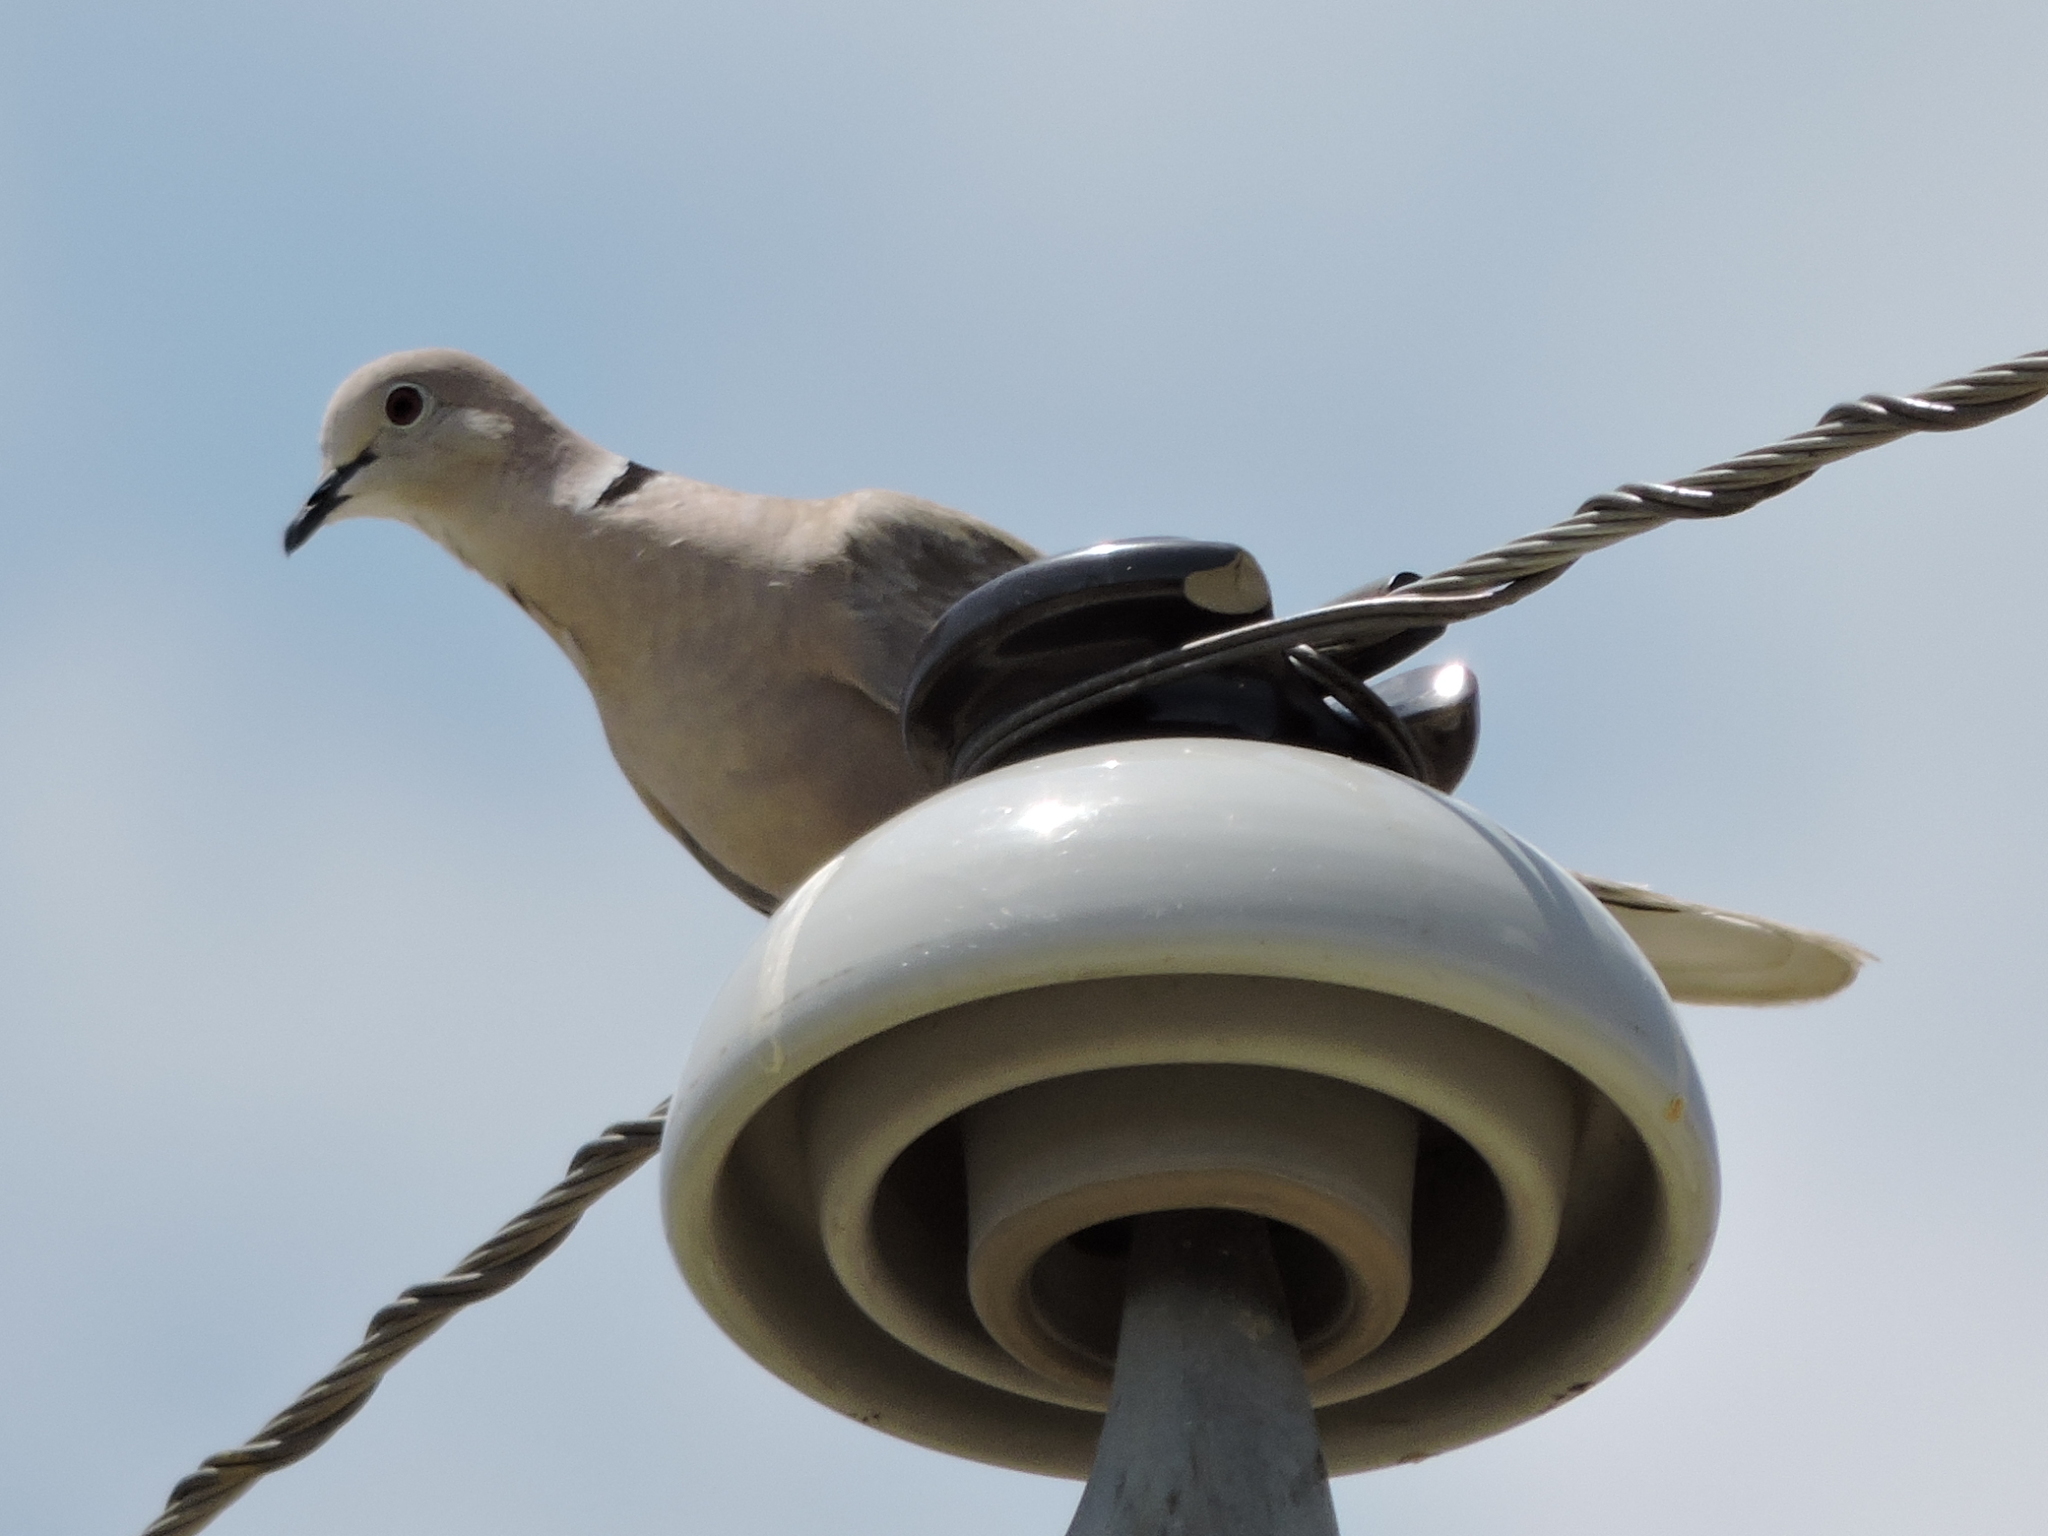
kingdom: Animalia
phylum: Chordata
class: Aves
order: Columbiformes
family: Columbidae
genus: Streptopelia
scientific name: Streptopelia decaocto
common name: Eurasian collared dove
